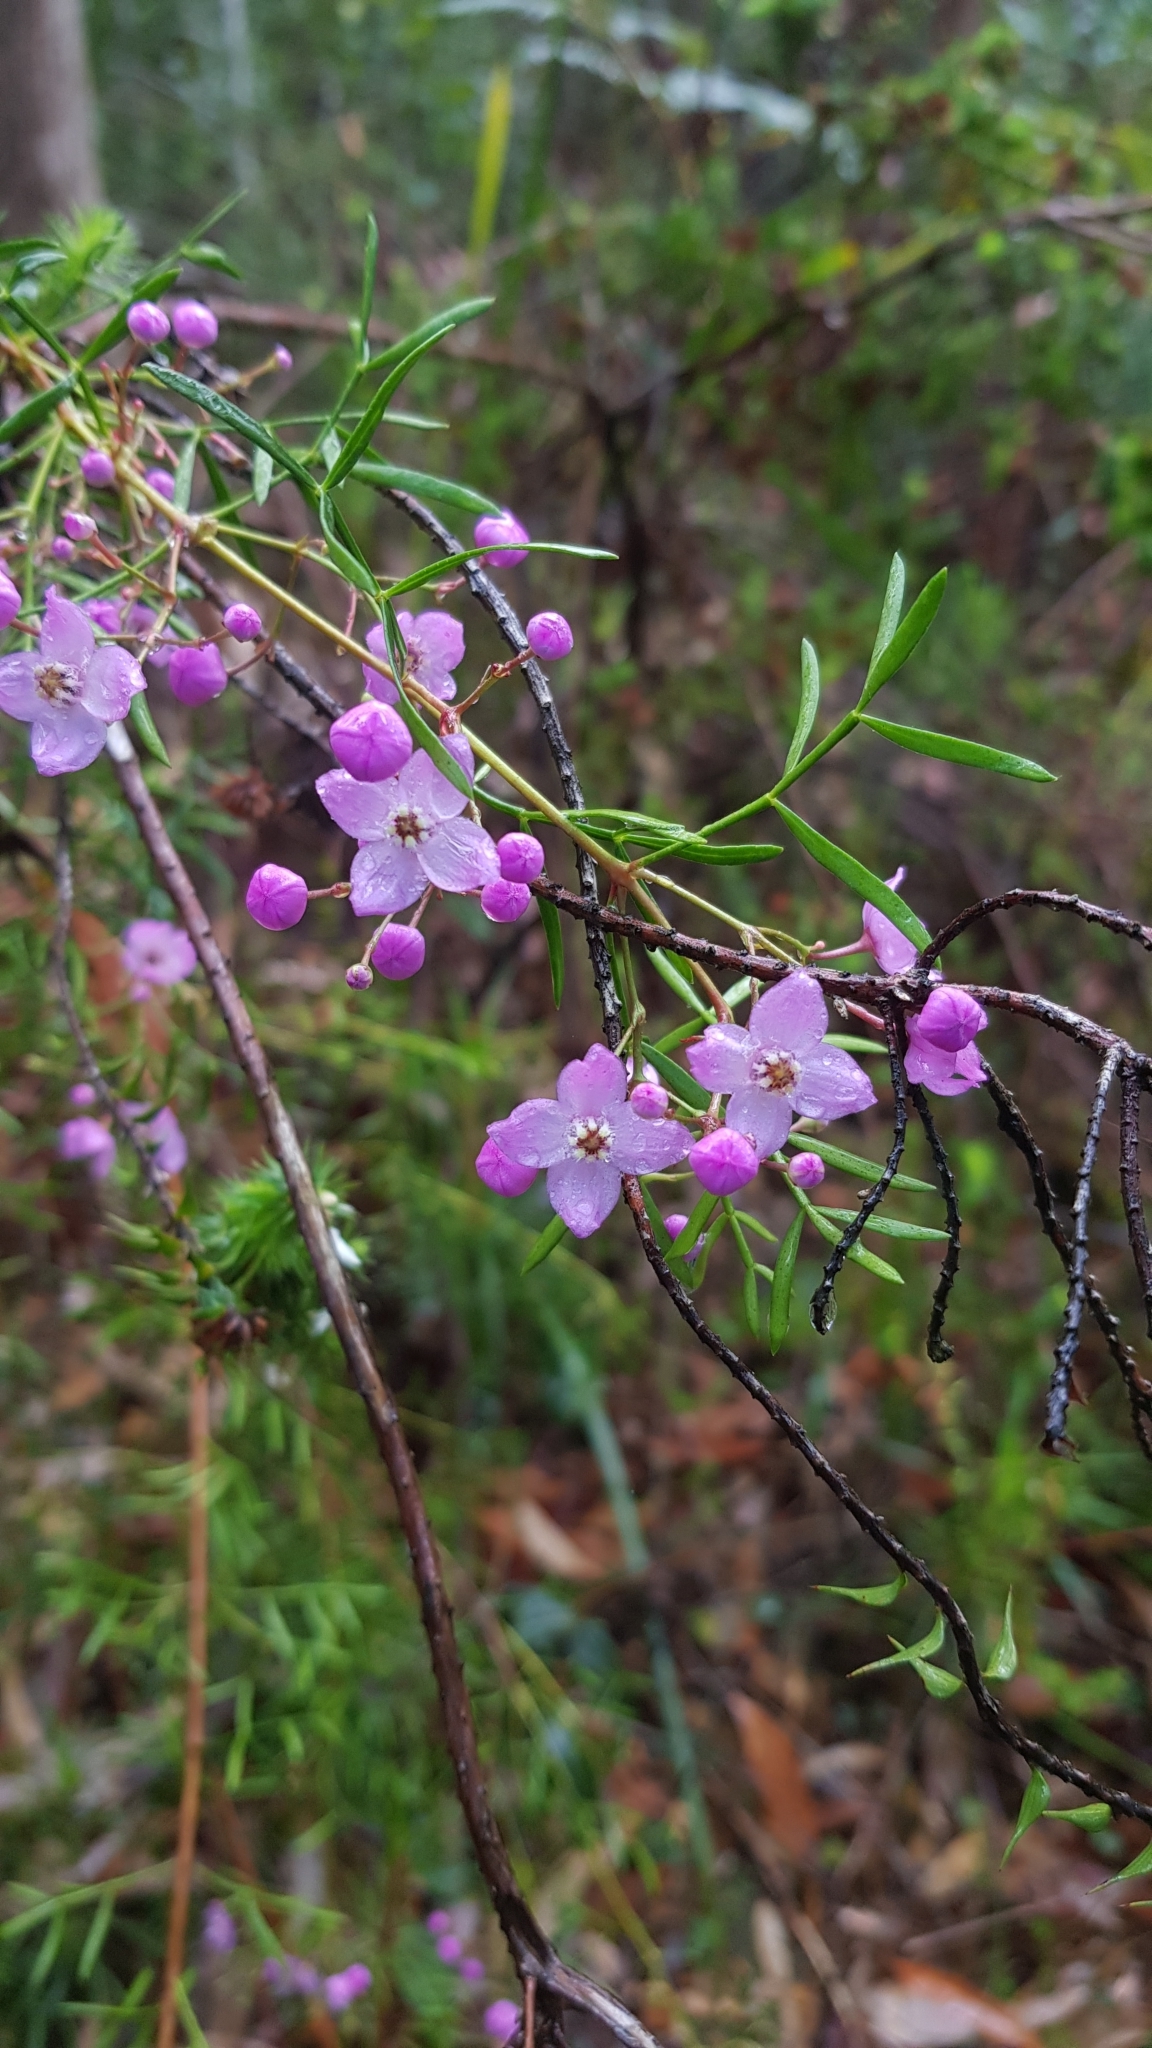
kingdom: Plantae
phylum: Tracheophyta
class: Magnoliopsida
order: Sapindales
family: Rutaceae
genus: Boronia
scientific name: Boronia pinnata
